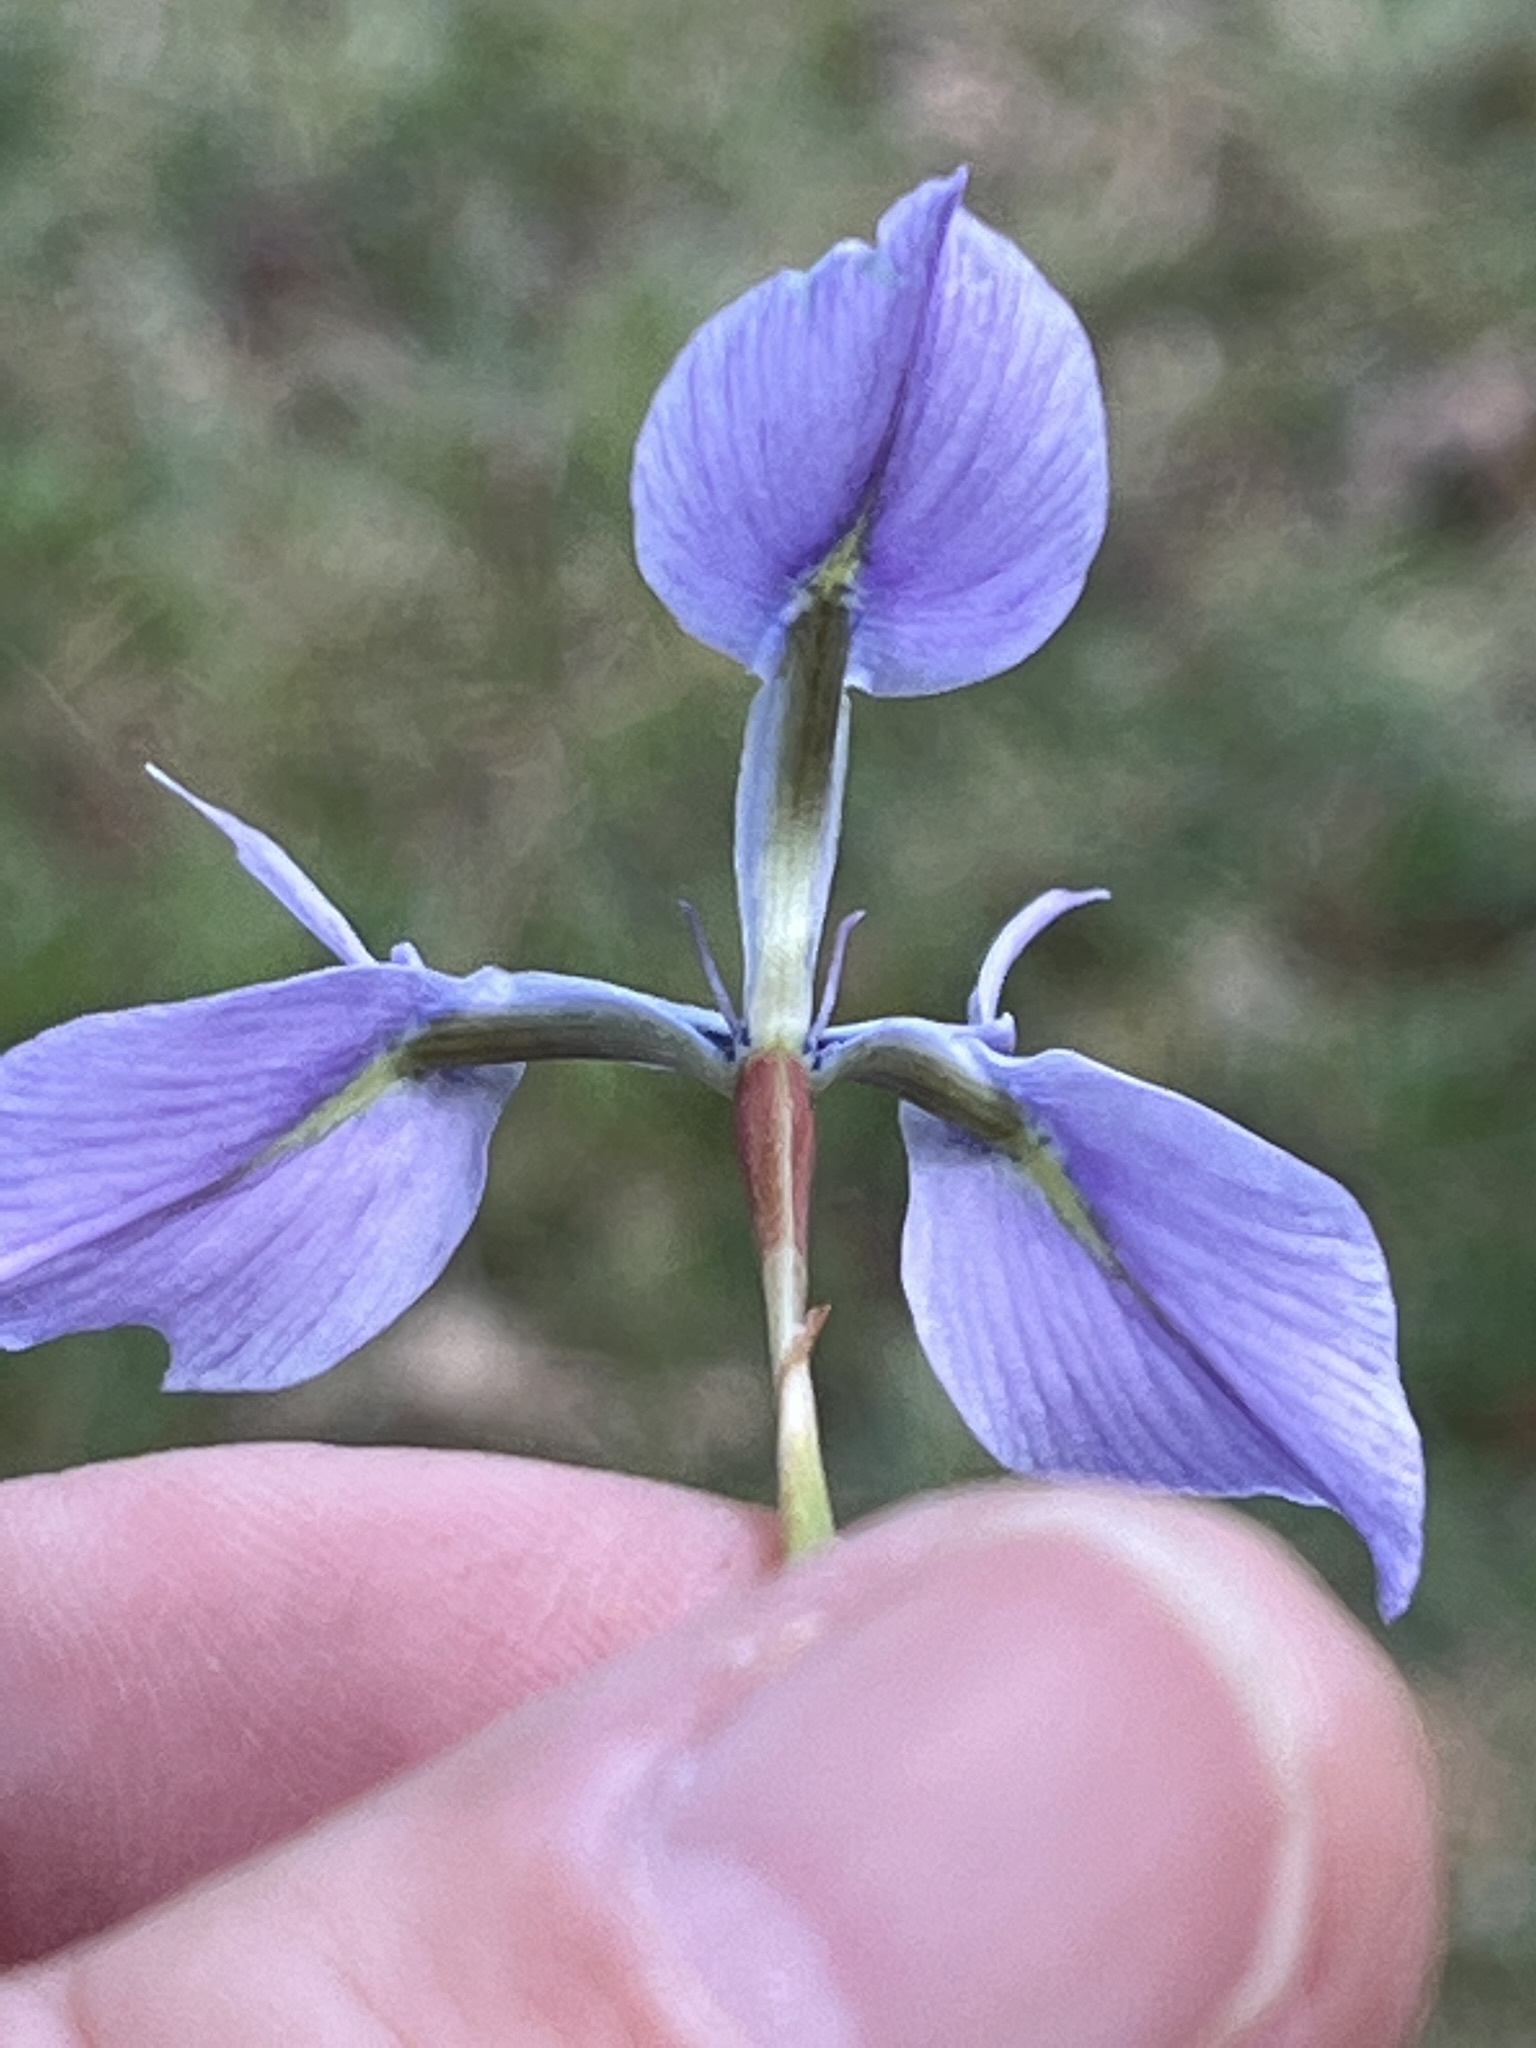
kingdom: Plantae
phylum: Tracheophyta
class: Liliopsida
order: Asparagales
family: Iridaceae
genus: Moraea
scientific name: Moraea tripetala
